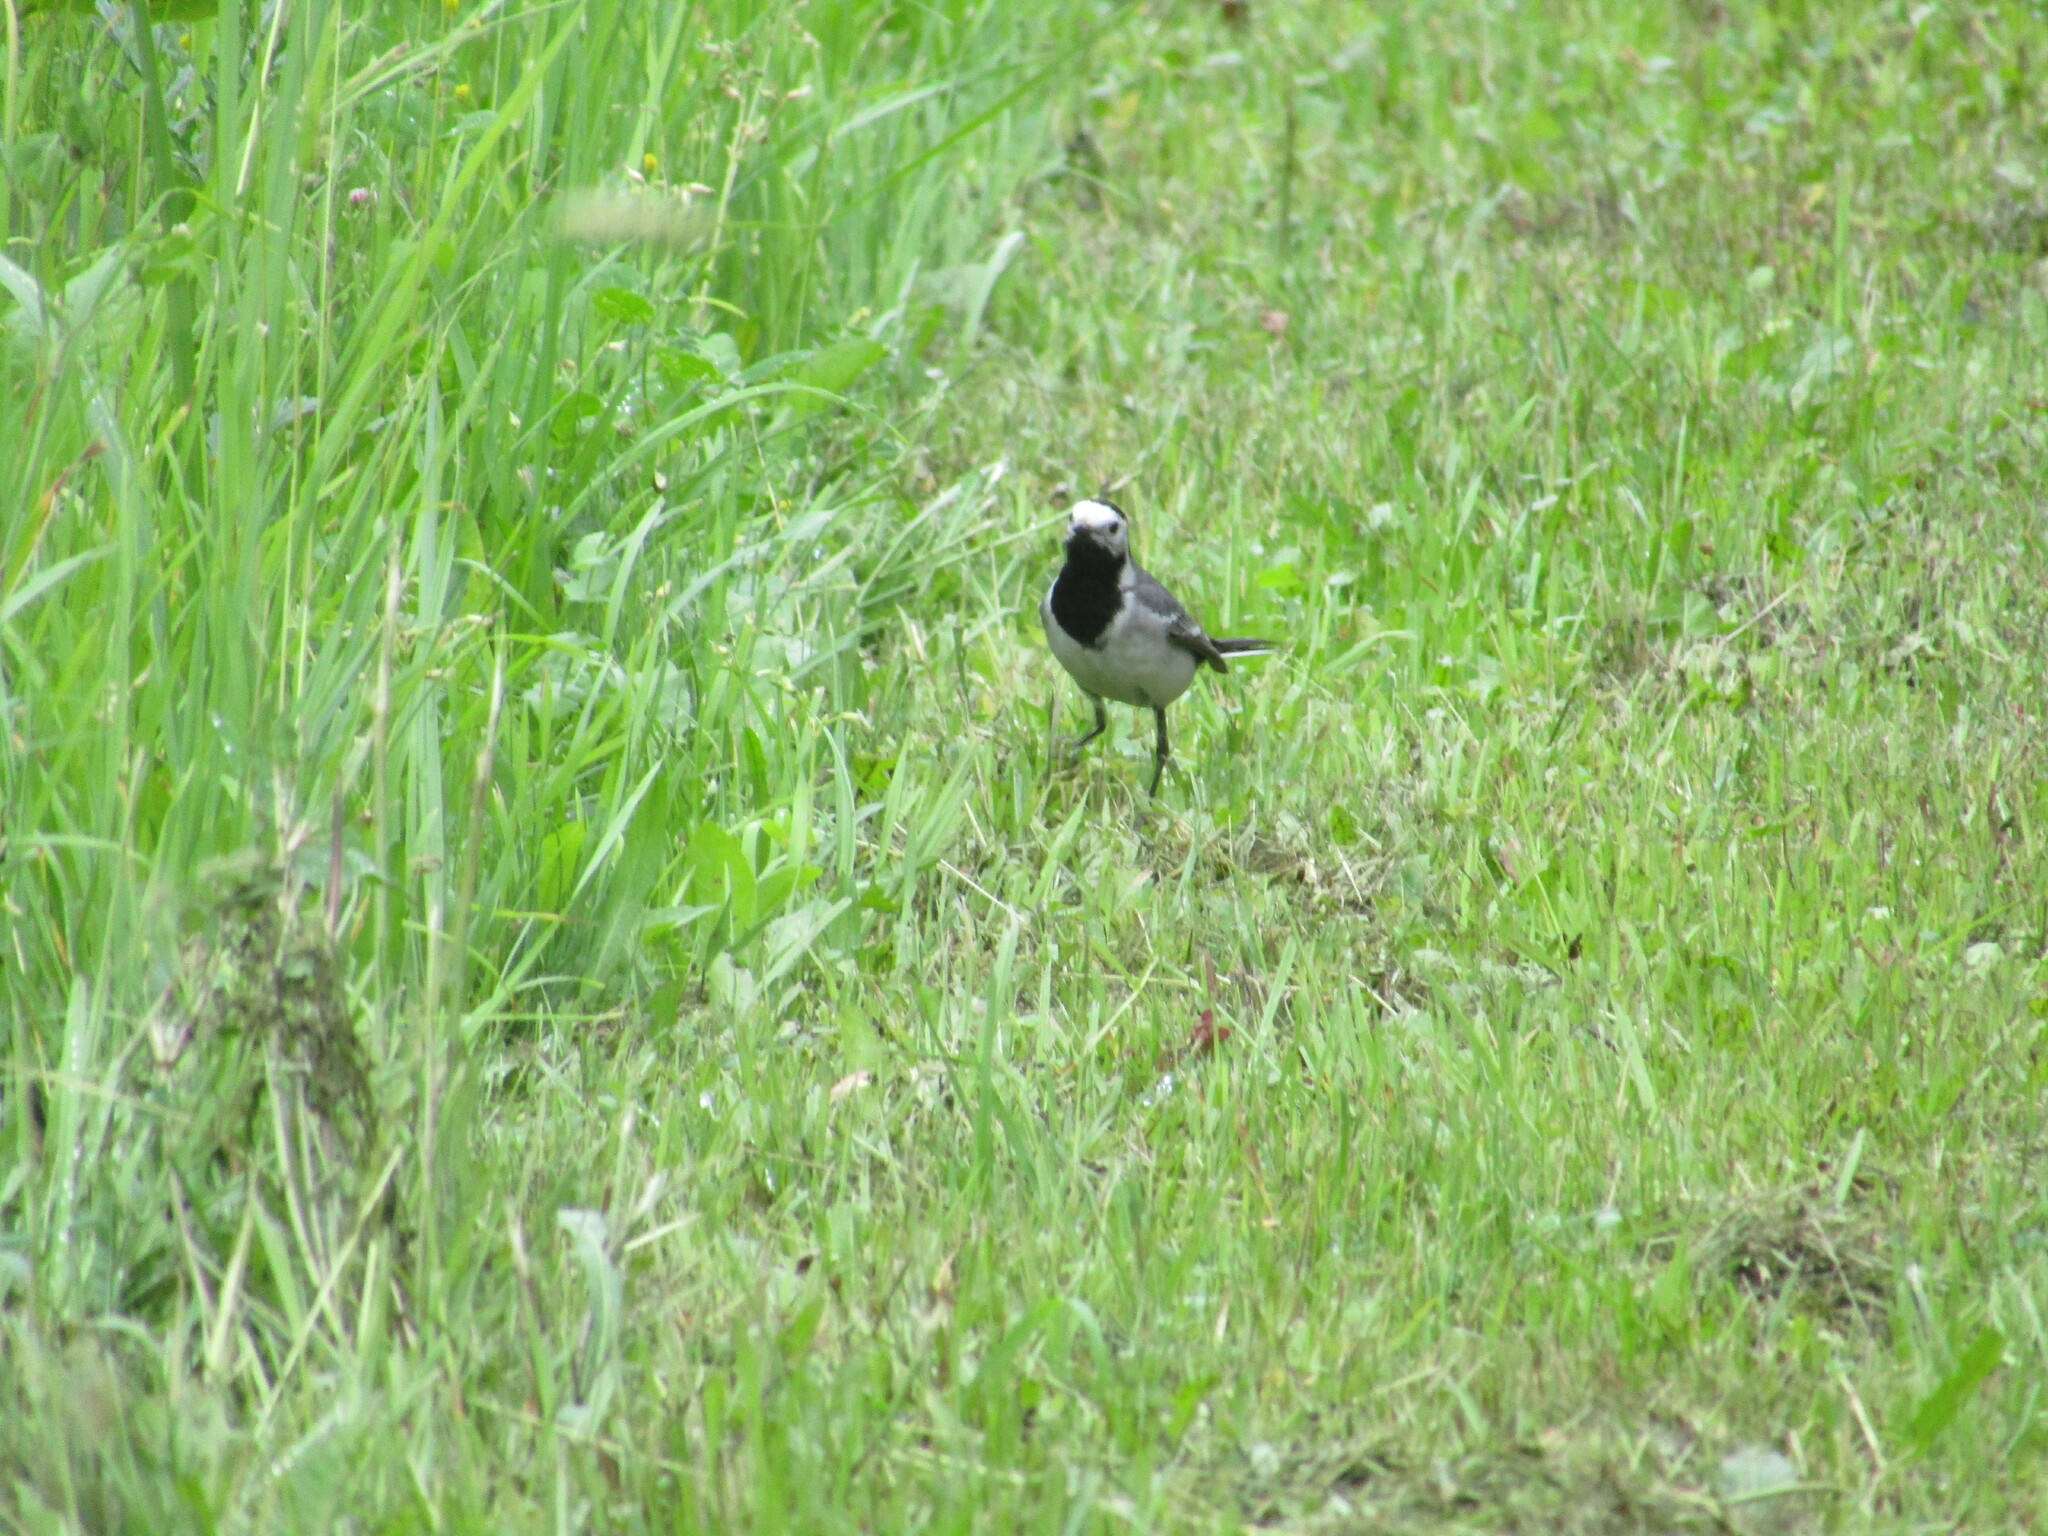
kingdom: Animalia
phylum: Chordata
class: Aves
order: Passeriformes
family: Motacillidae
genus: Motacilla
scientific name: Motacilla alba
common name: White wagtail
